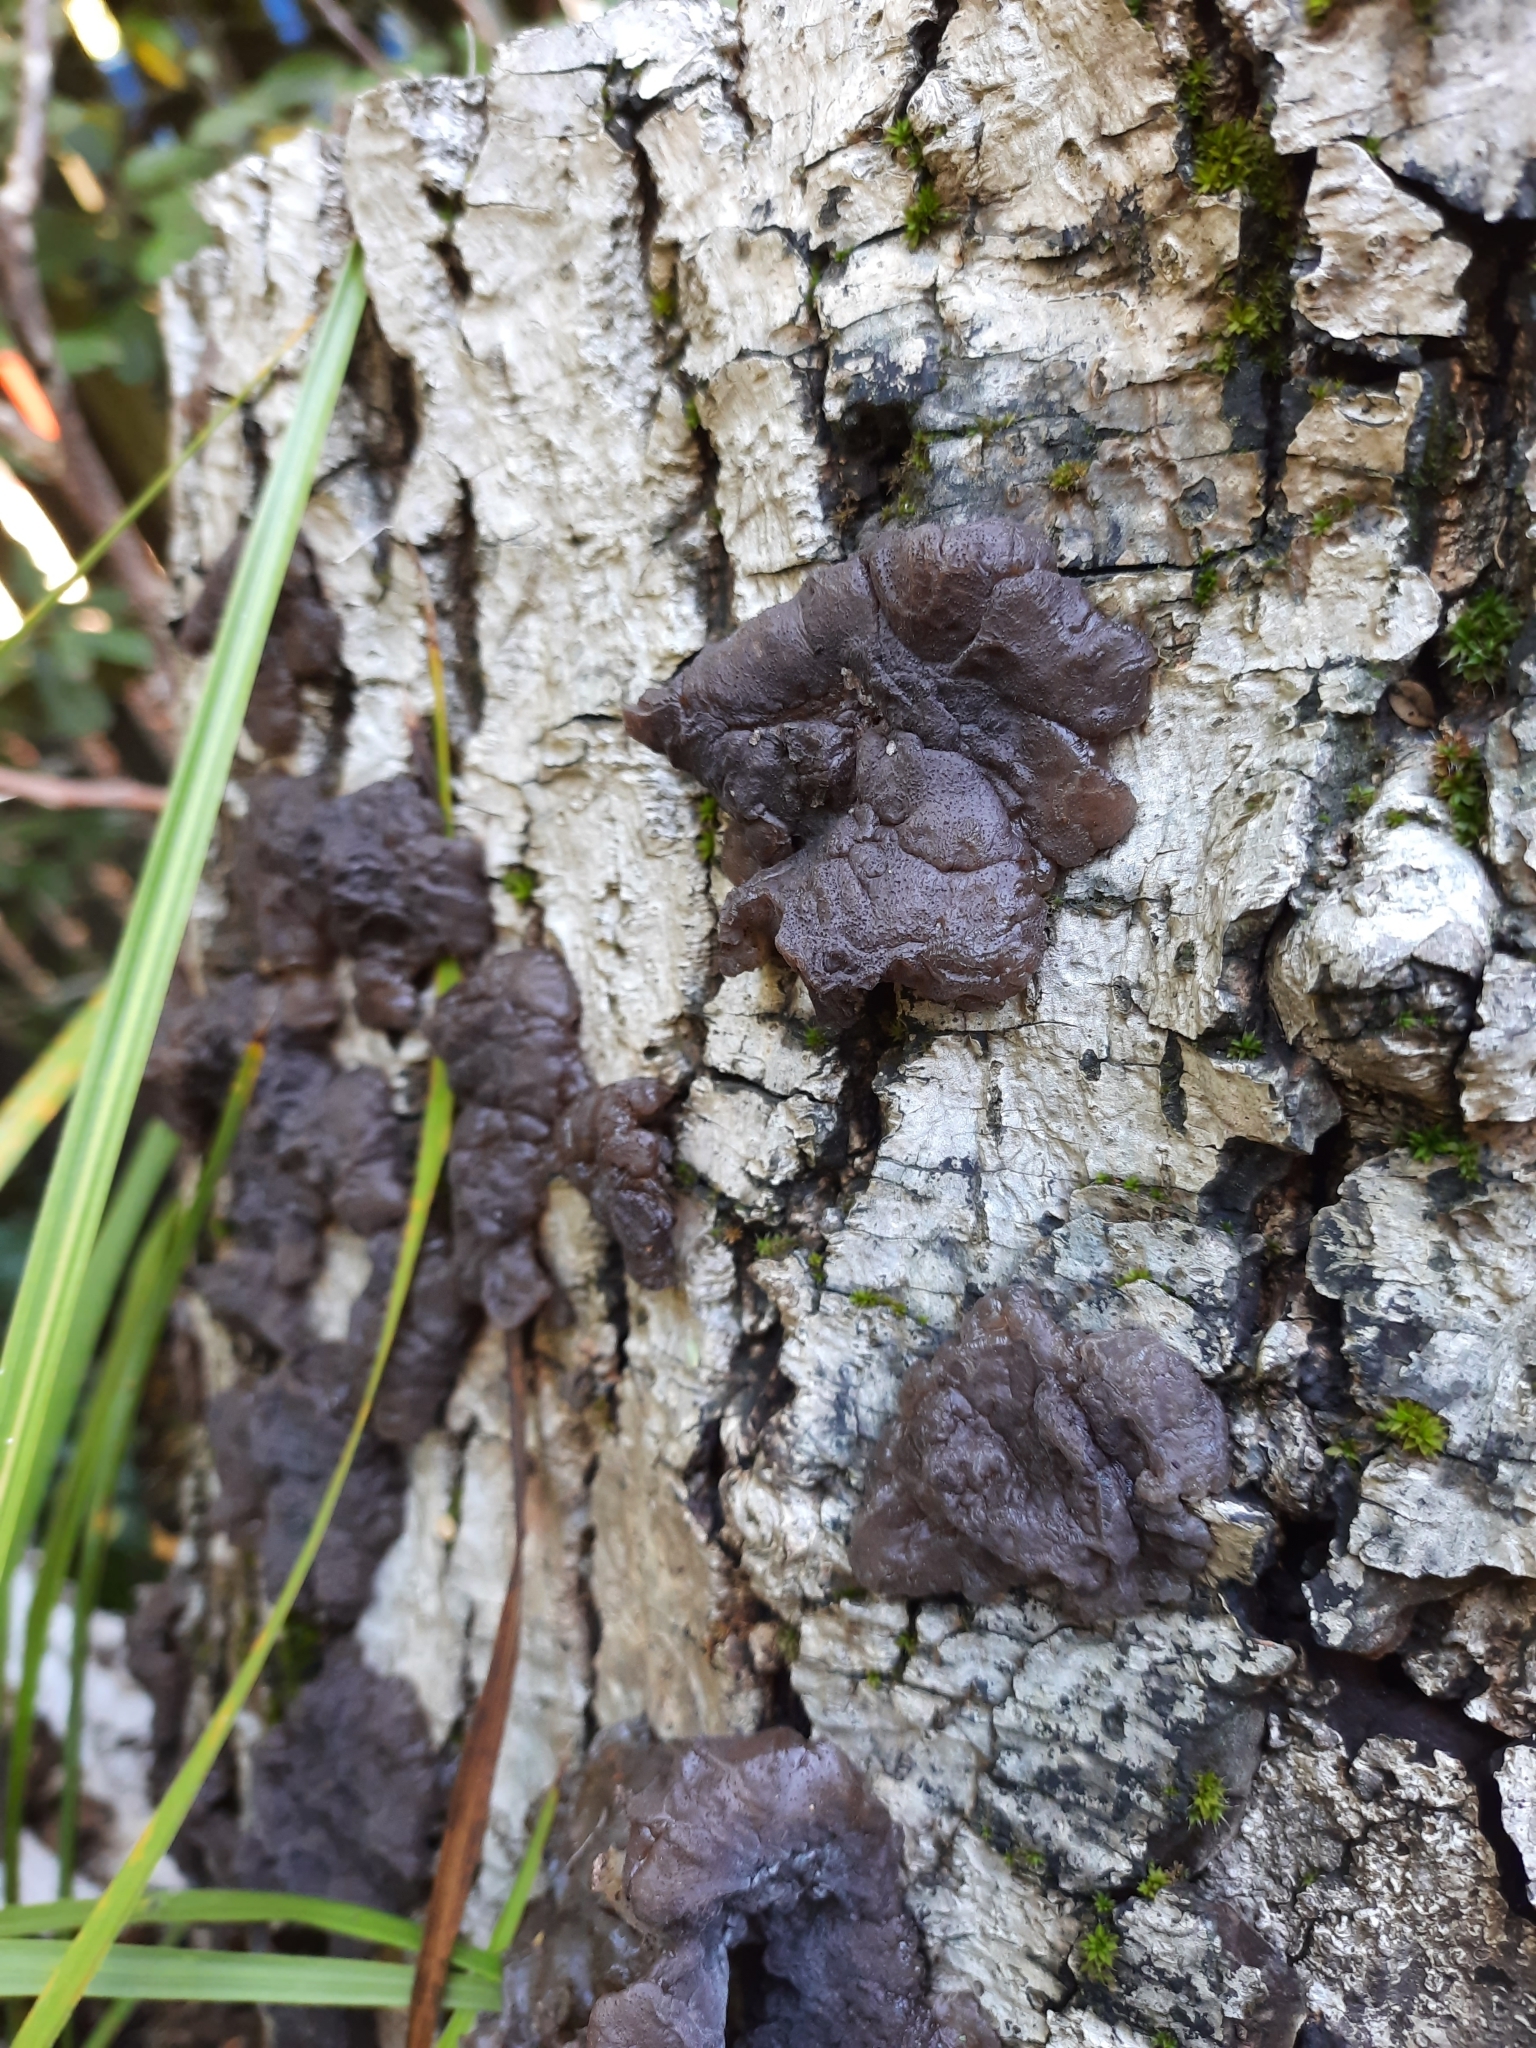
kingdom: Fungi
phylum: Basidiomycota
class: Agaricomycetes
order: Auriculariales
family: Auriculariaceae
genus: Tremellochaete
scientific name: Tremellochaete
